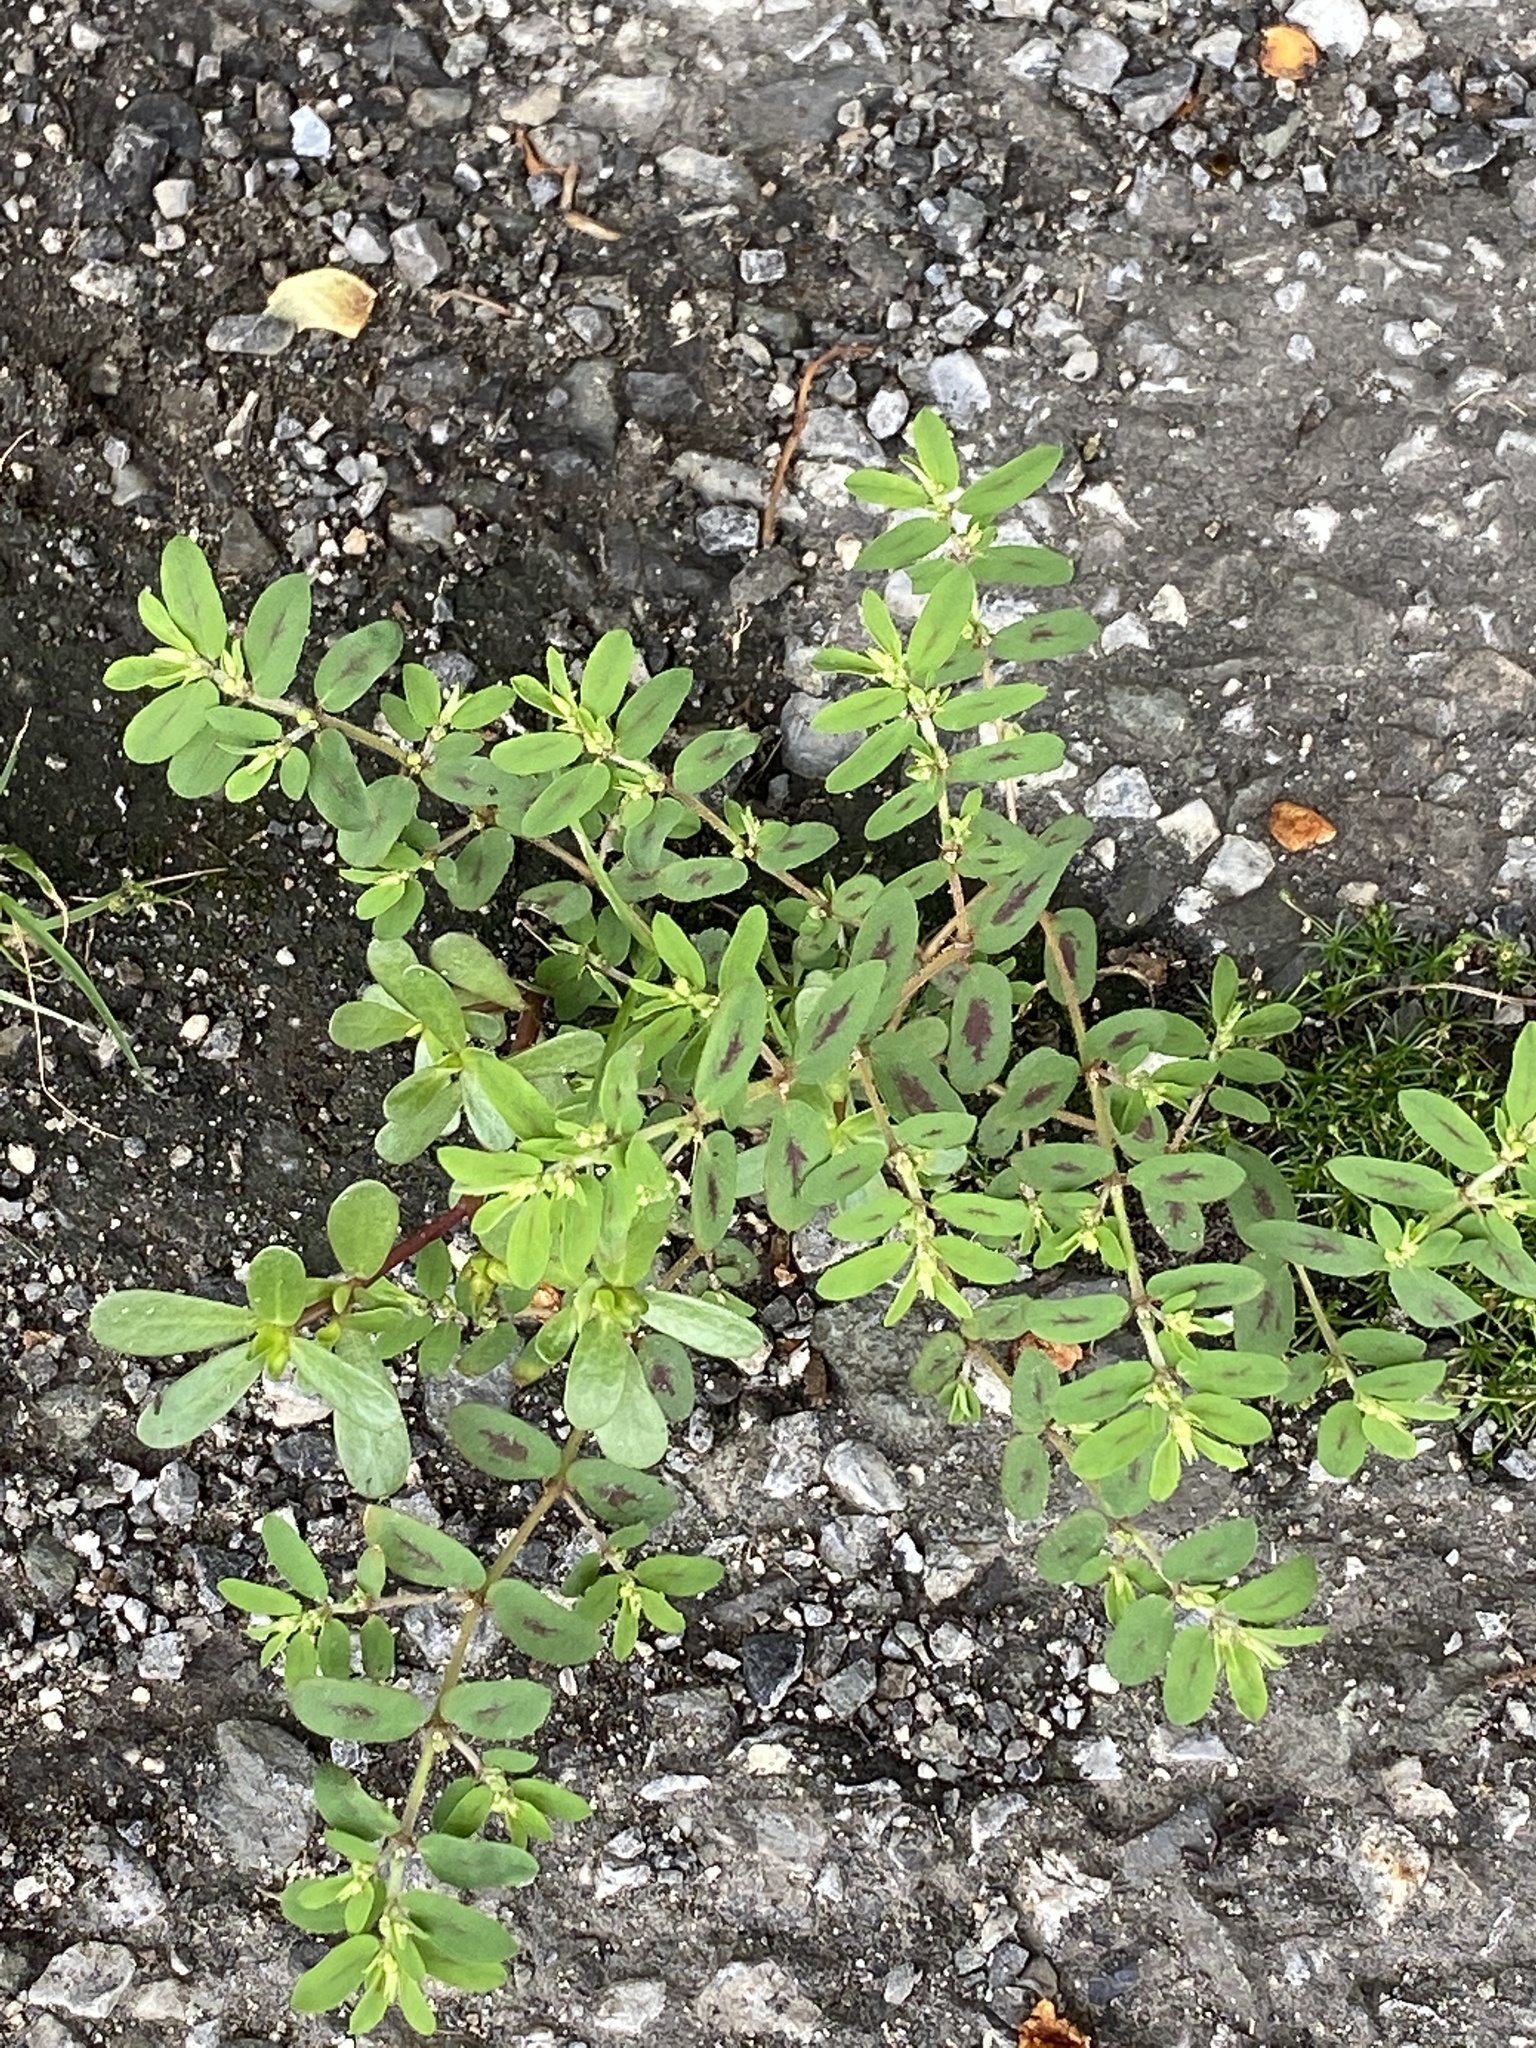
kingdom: Plantae
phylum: Tracheophyta
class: Magnoliopsida
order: Malpighiales
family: Euphorbiaceae
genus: Euphorbia
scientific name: Euphorbia maculata
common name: Spotted spurge
